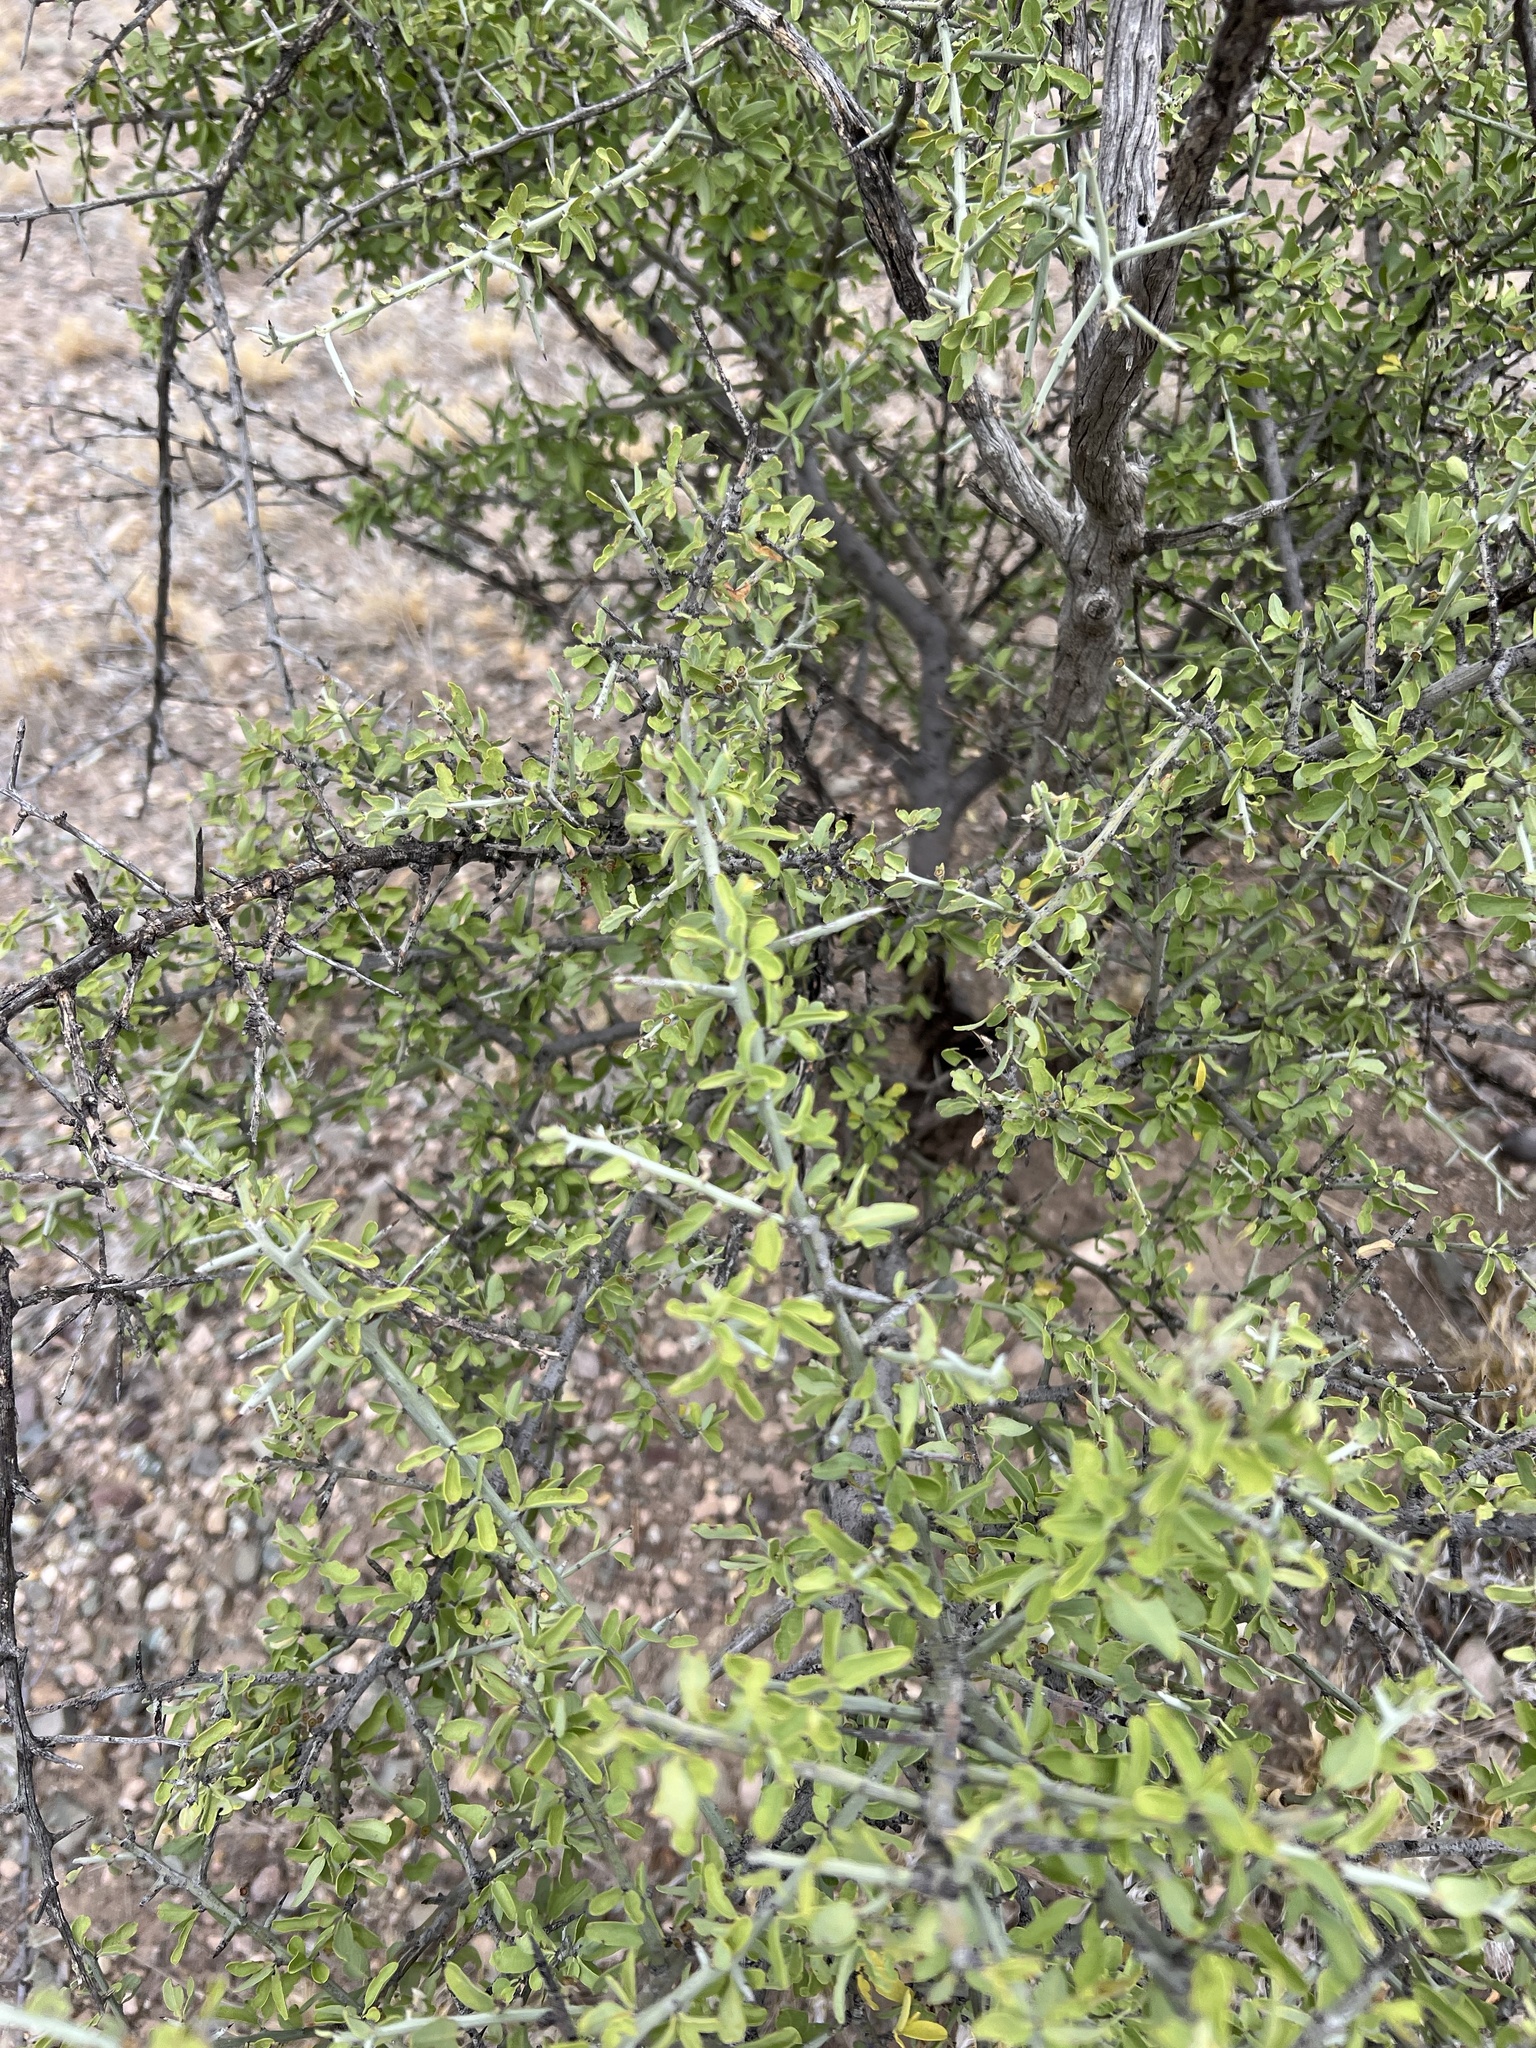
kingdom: Plantae
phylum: Tracheophyta
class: Magnoliopsida
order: Rosales
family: Rhamnaceae
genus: Sarcomphalus
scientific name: Sarcomphalus obtusifolius
